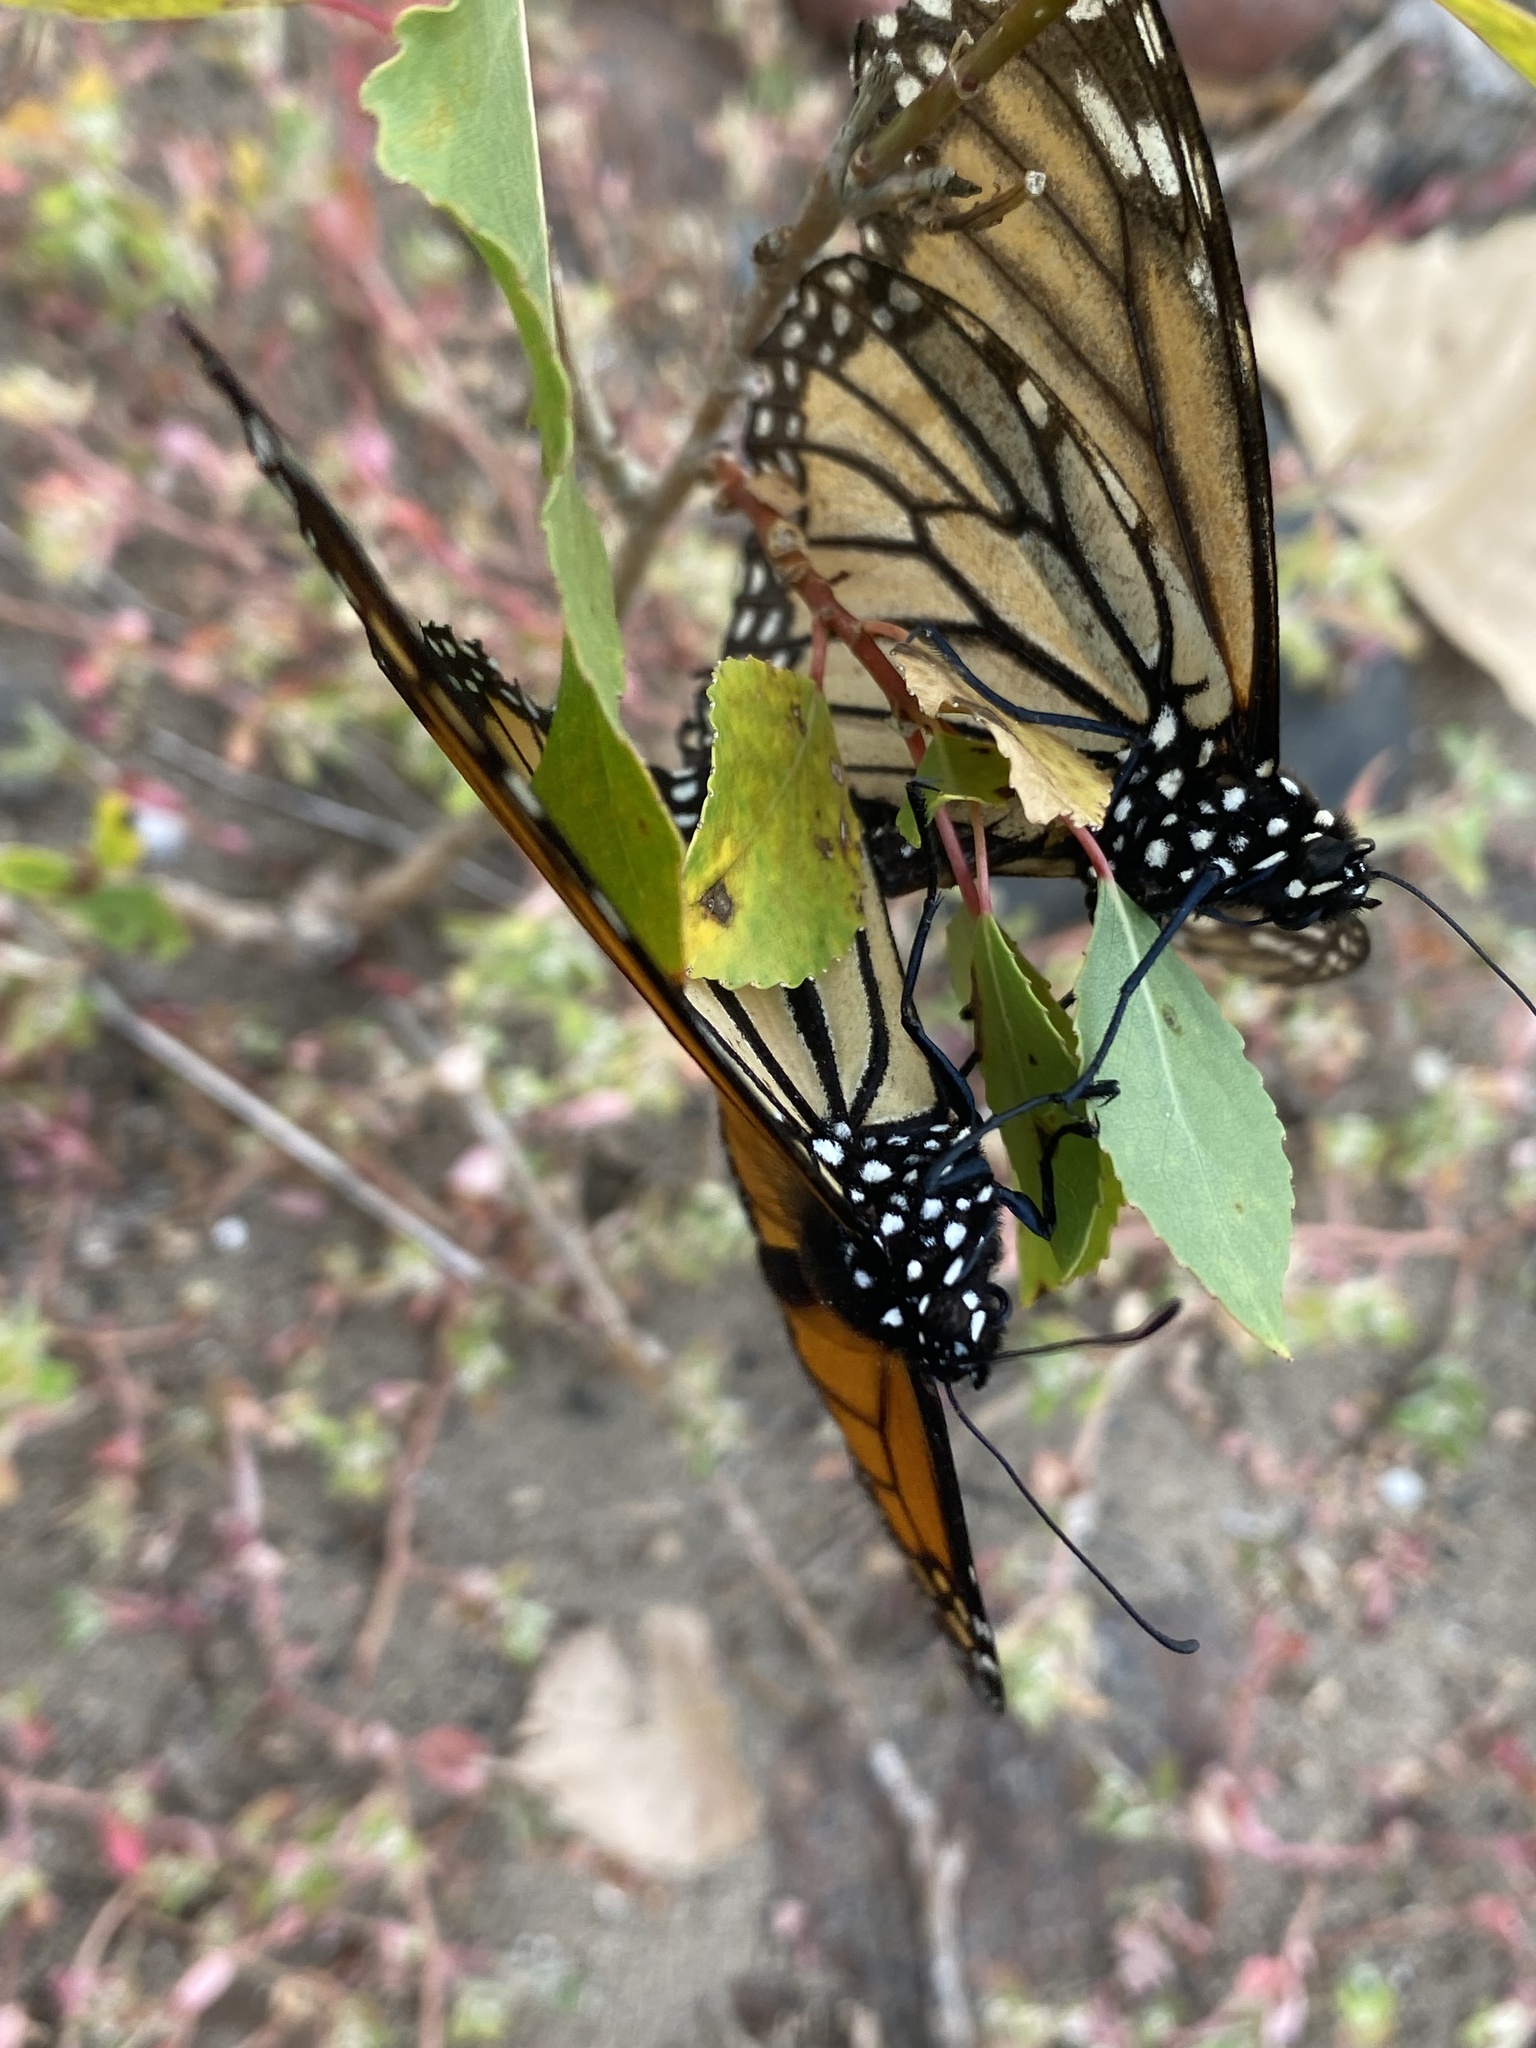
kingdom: Animalia
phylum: Arthropoda
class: Insecta
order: Lepidoptera
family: Nymphalidae
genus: Danaus
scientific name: Danaus plexippus
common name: Monarch
